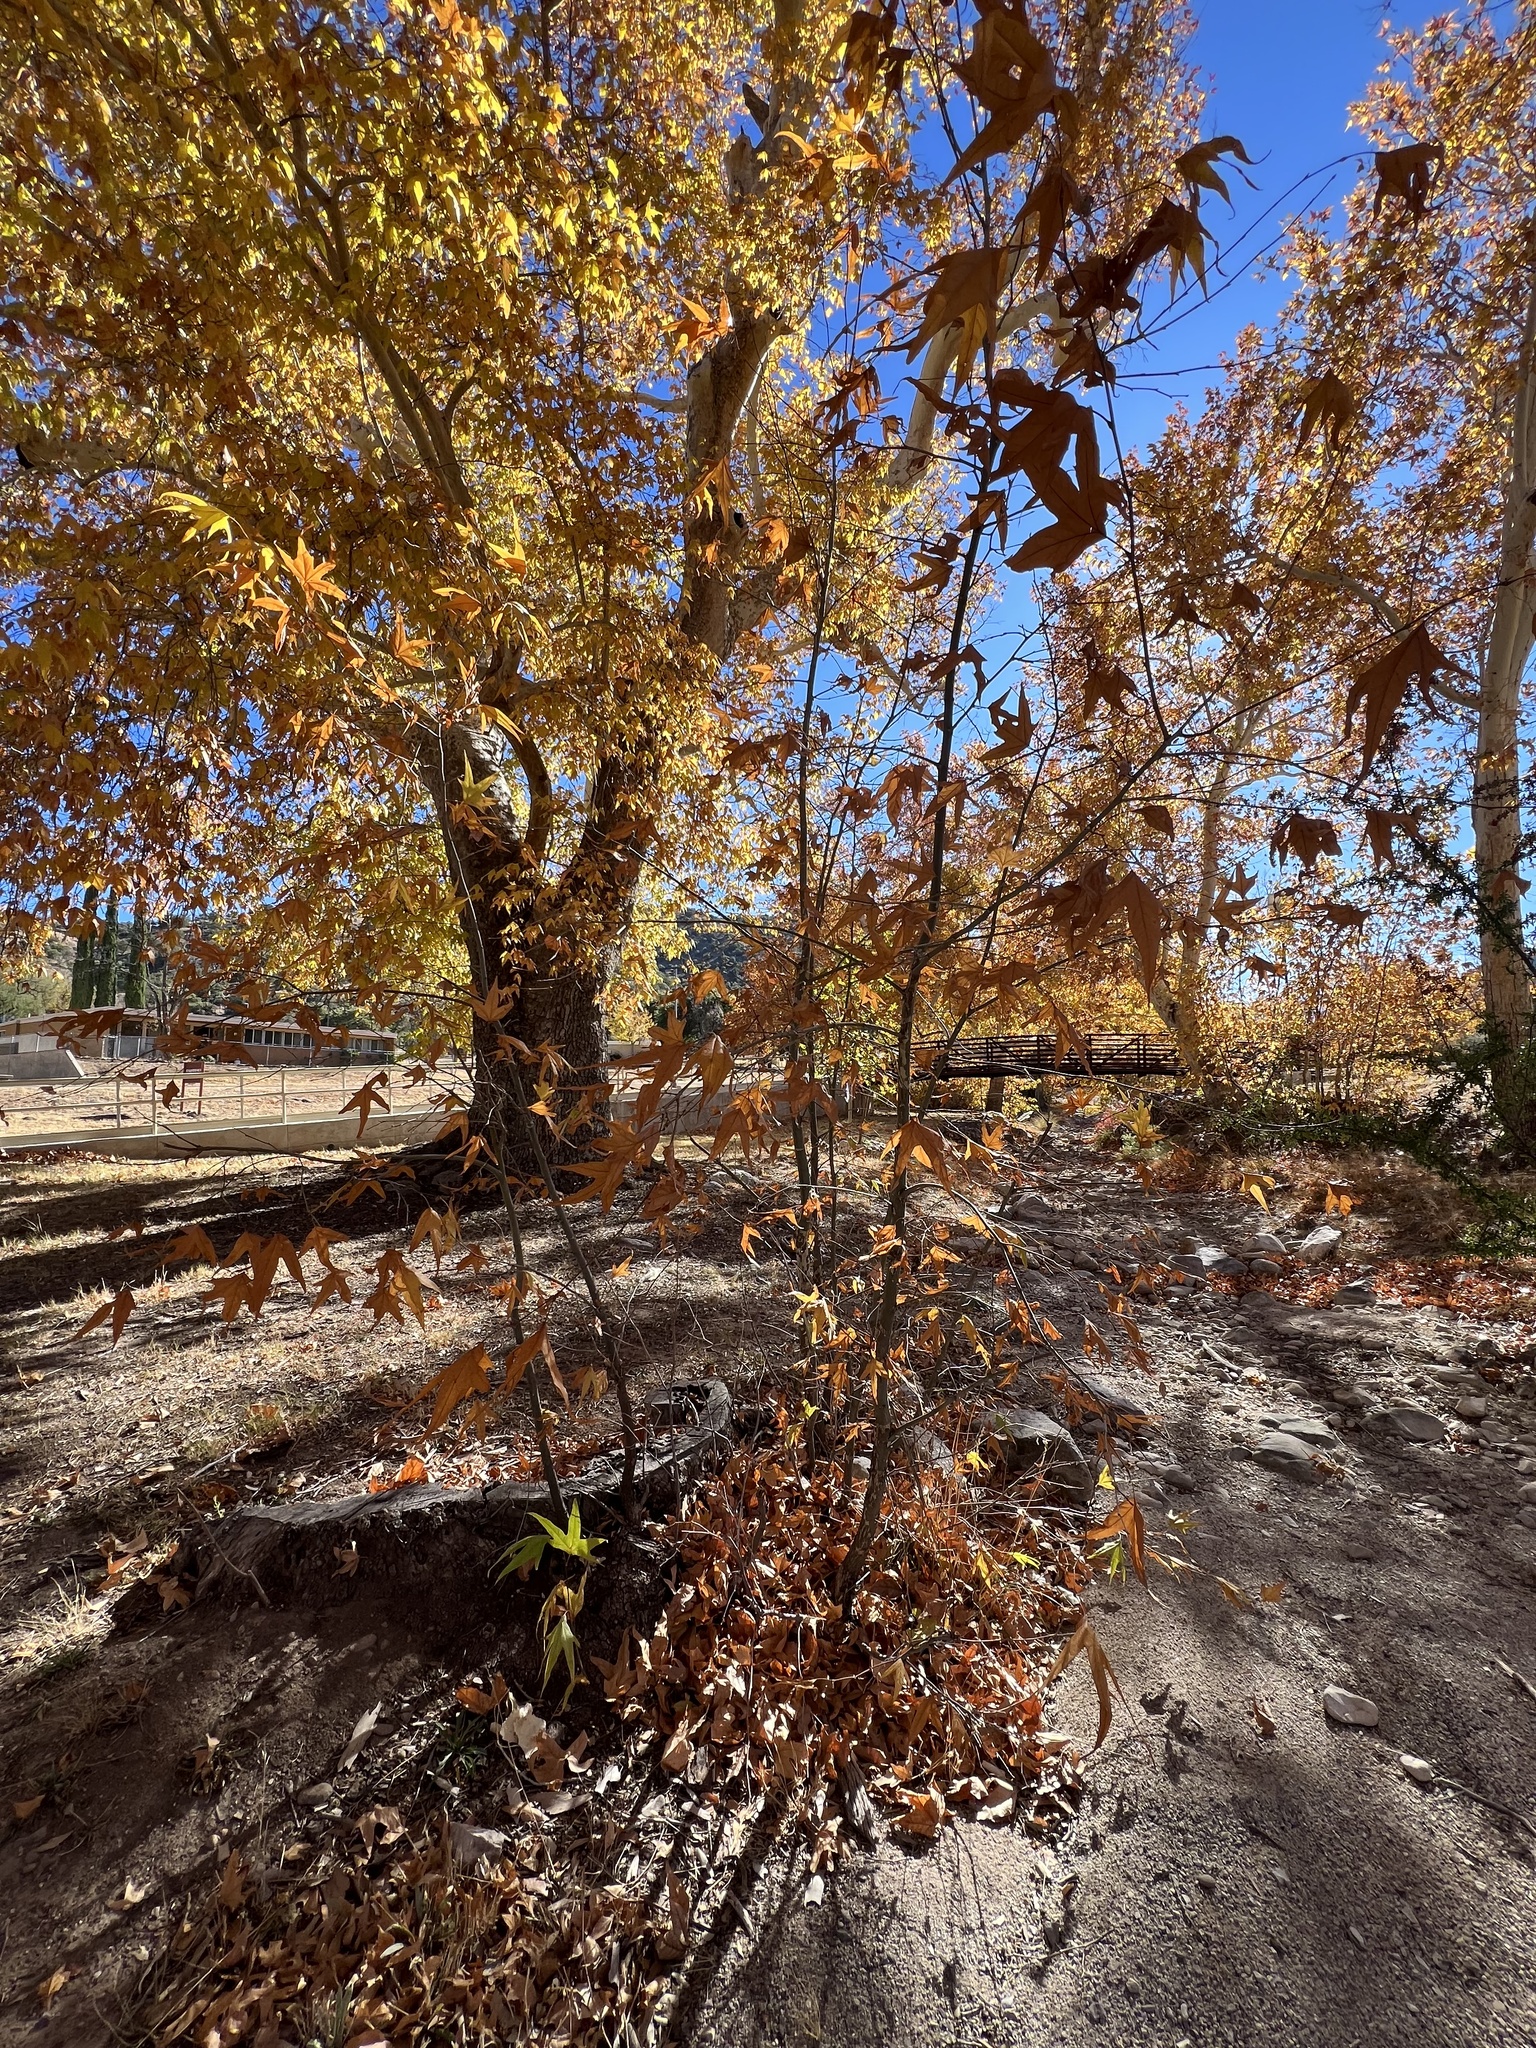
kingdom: Plantae
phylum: Tracheophyta
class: Magnoliopsida
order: Proteales
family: Platanaceae
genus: Platanus
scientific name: Platanus wrightii
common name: Arizona sycamore
